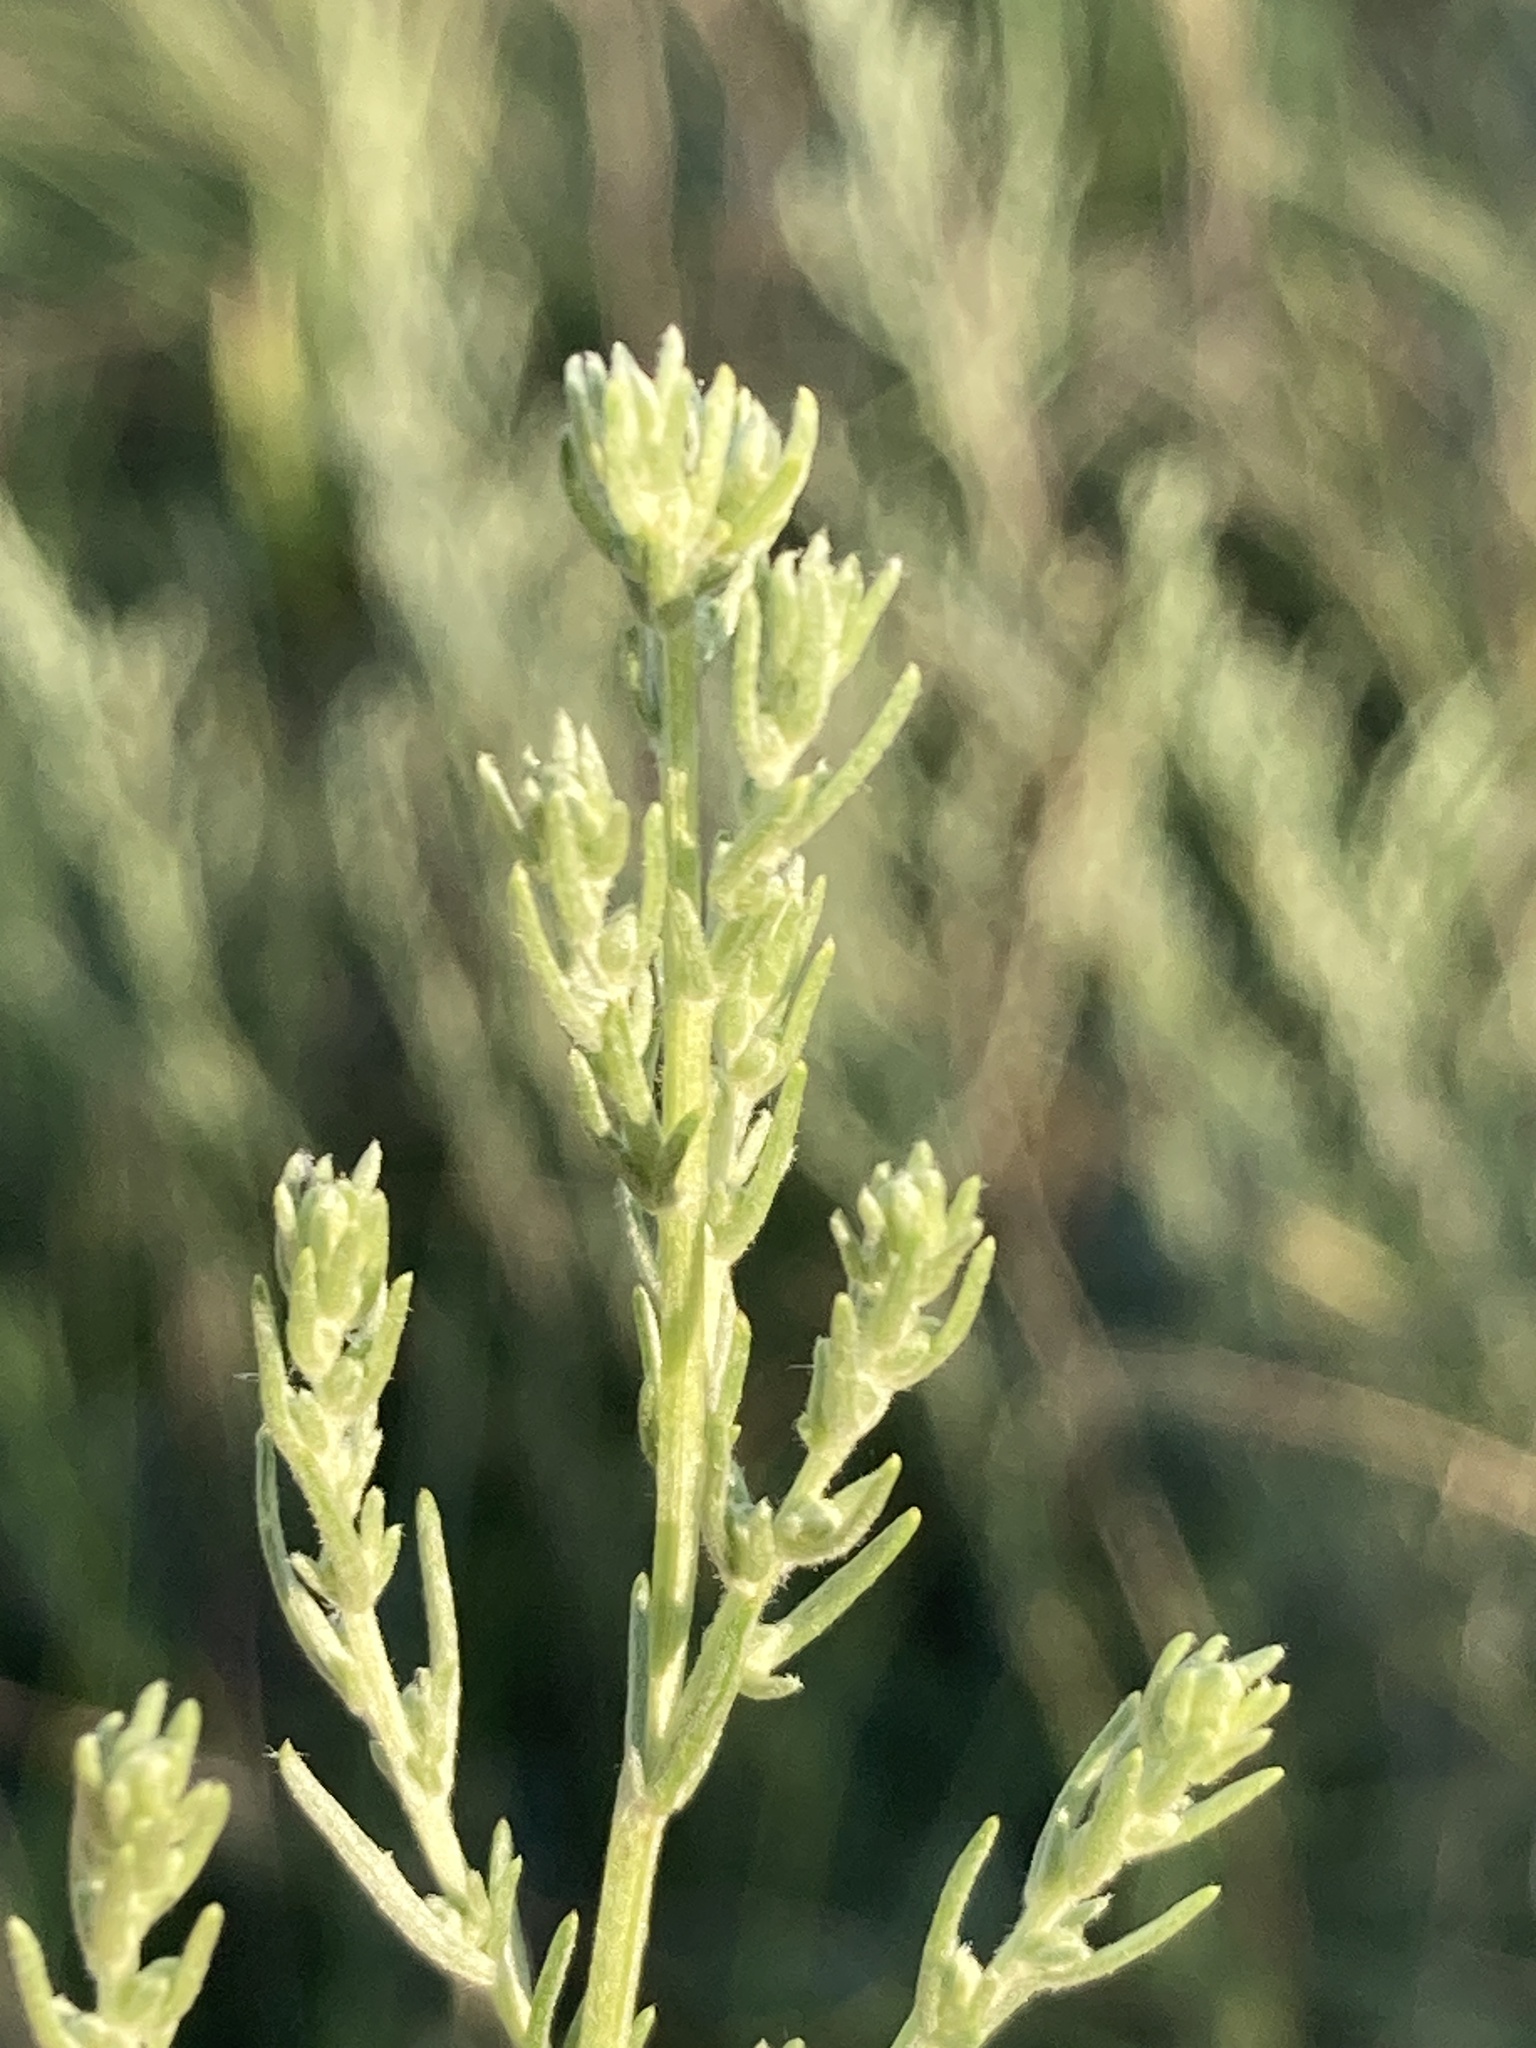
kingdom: Plantae
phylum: Tracheophyta
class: Magnoliopsida
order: Asterales
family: Asteraceae
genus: Artemisia
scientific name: Artemisia campestris
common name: Field wormwood
